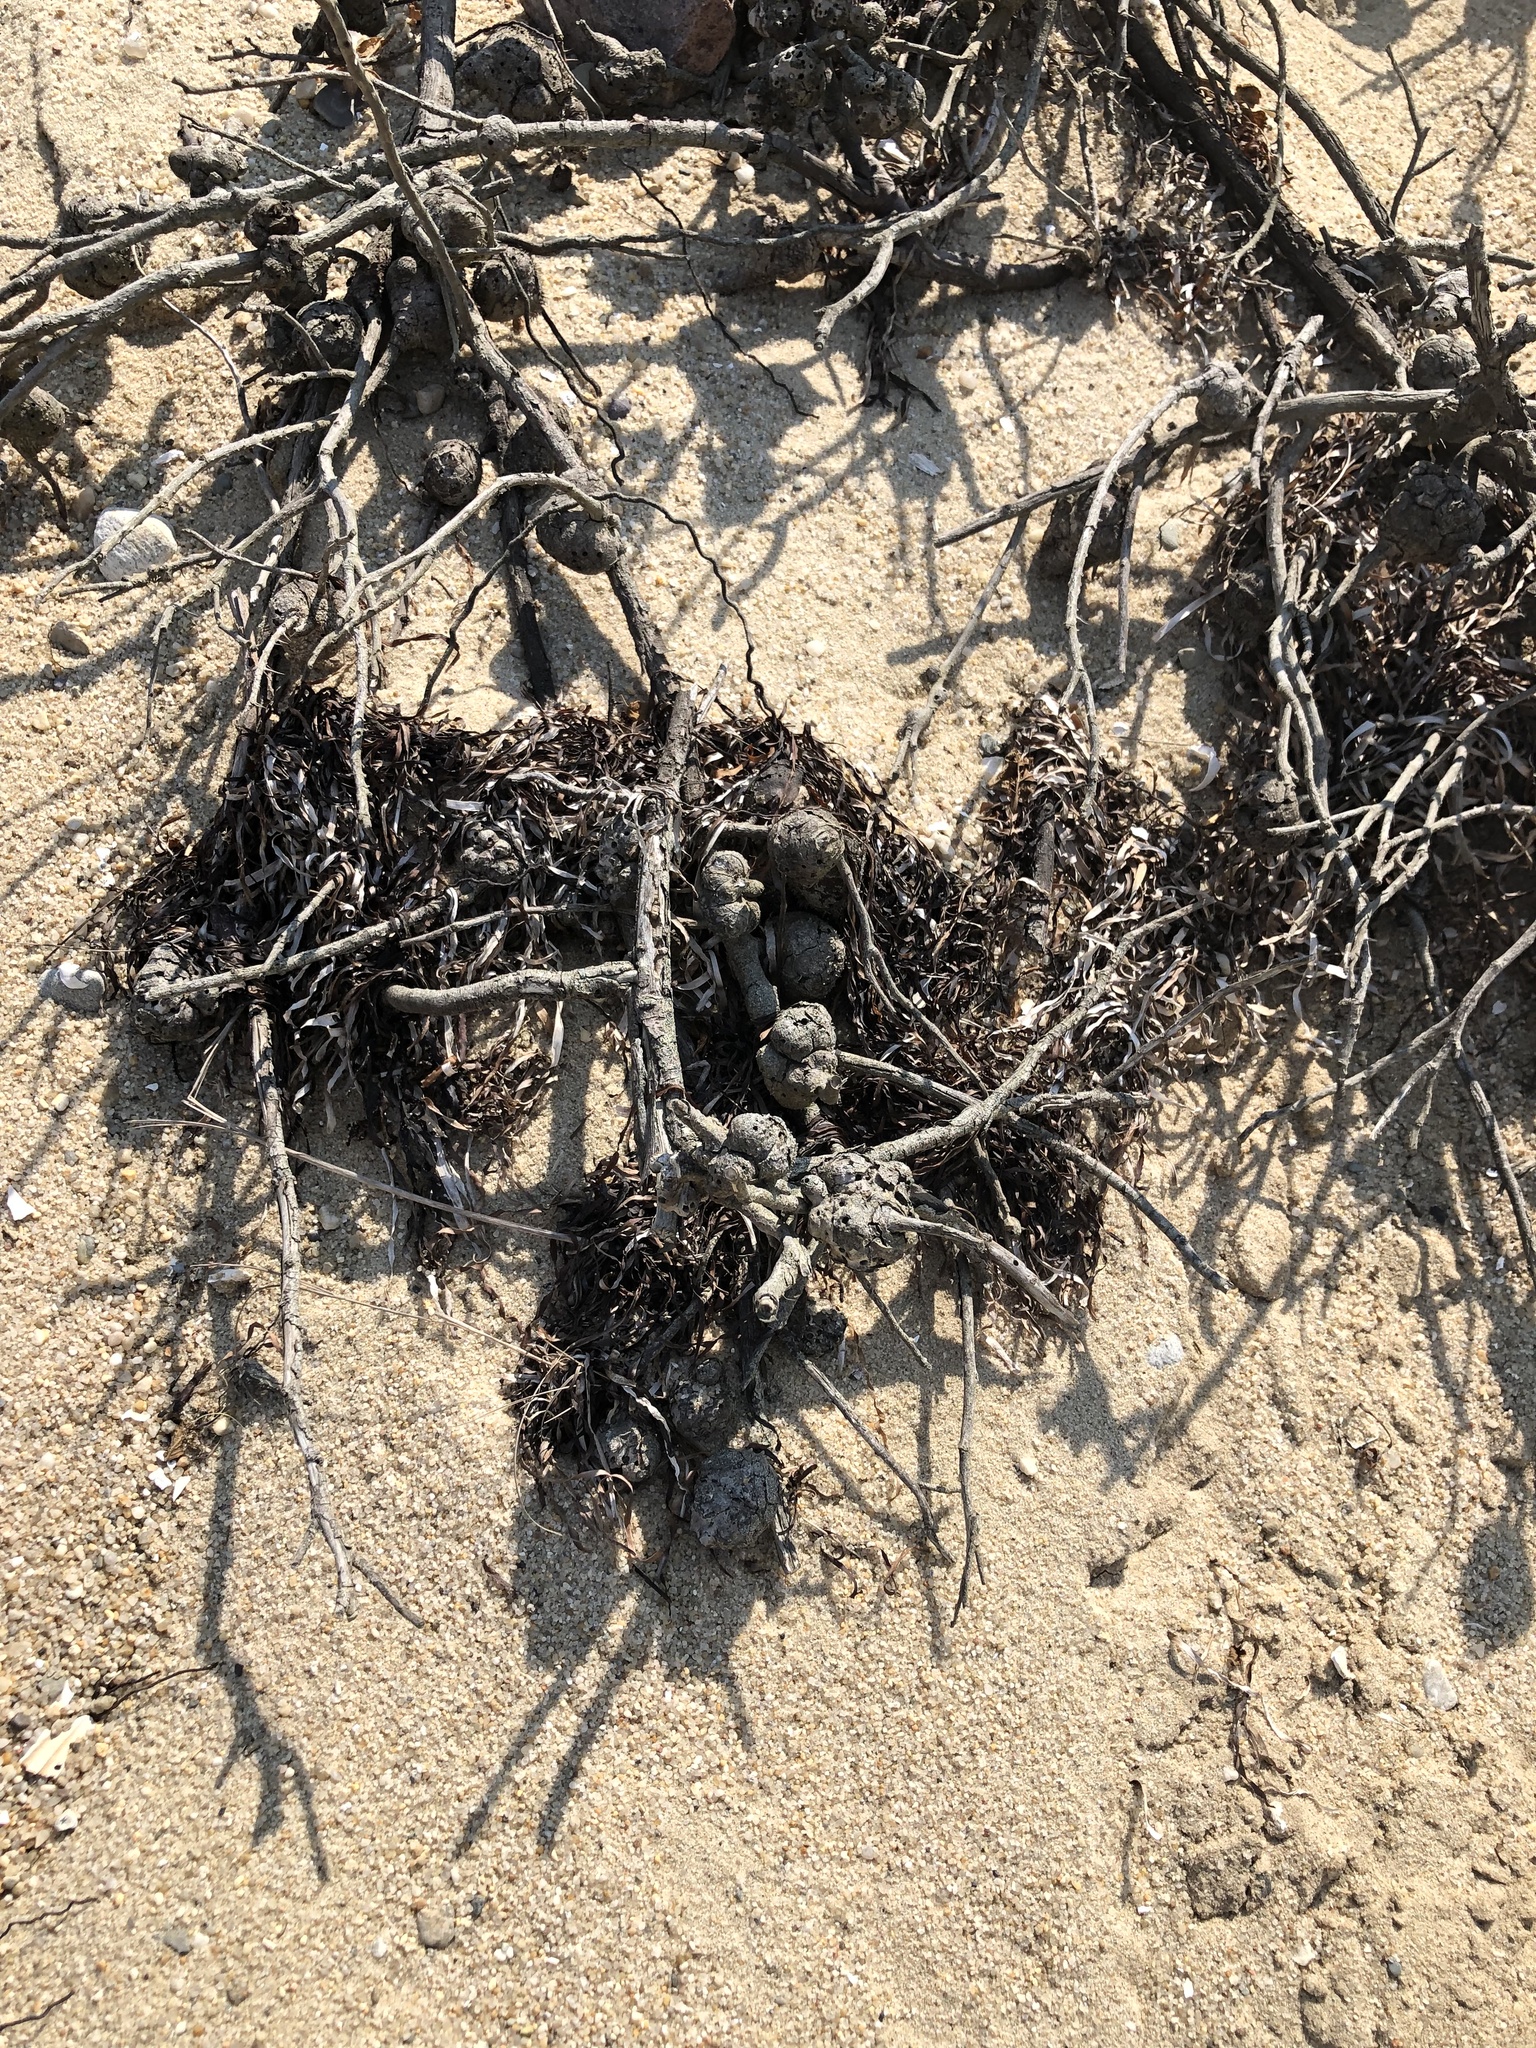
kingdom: Animalia
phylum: Arthropoda
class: Insecta
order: Hymenoptera
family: Cynipidae
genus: Diplolepis
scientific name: Diplolepis spinosa
